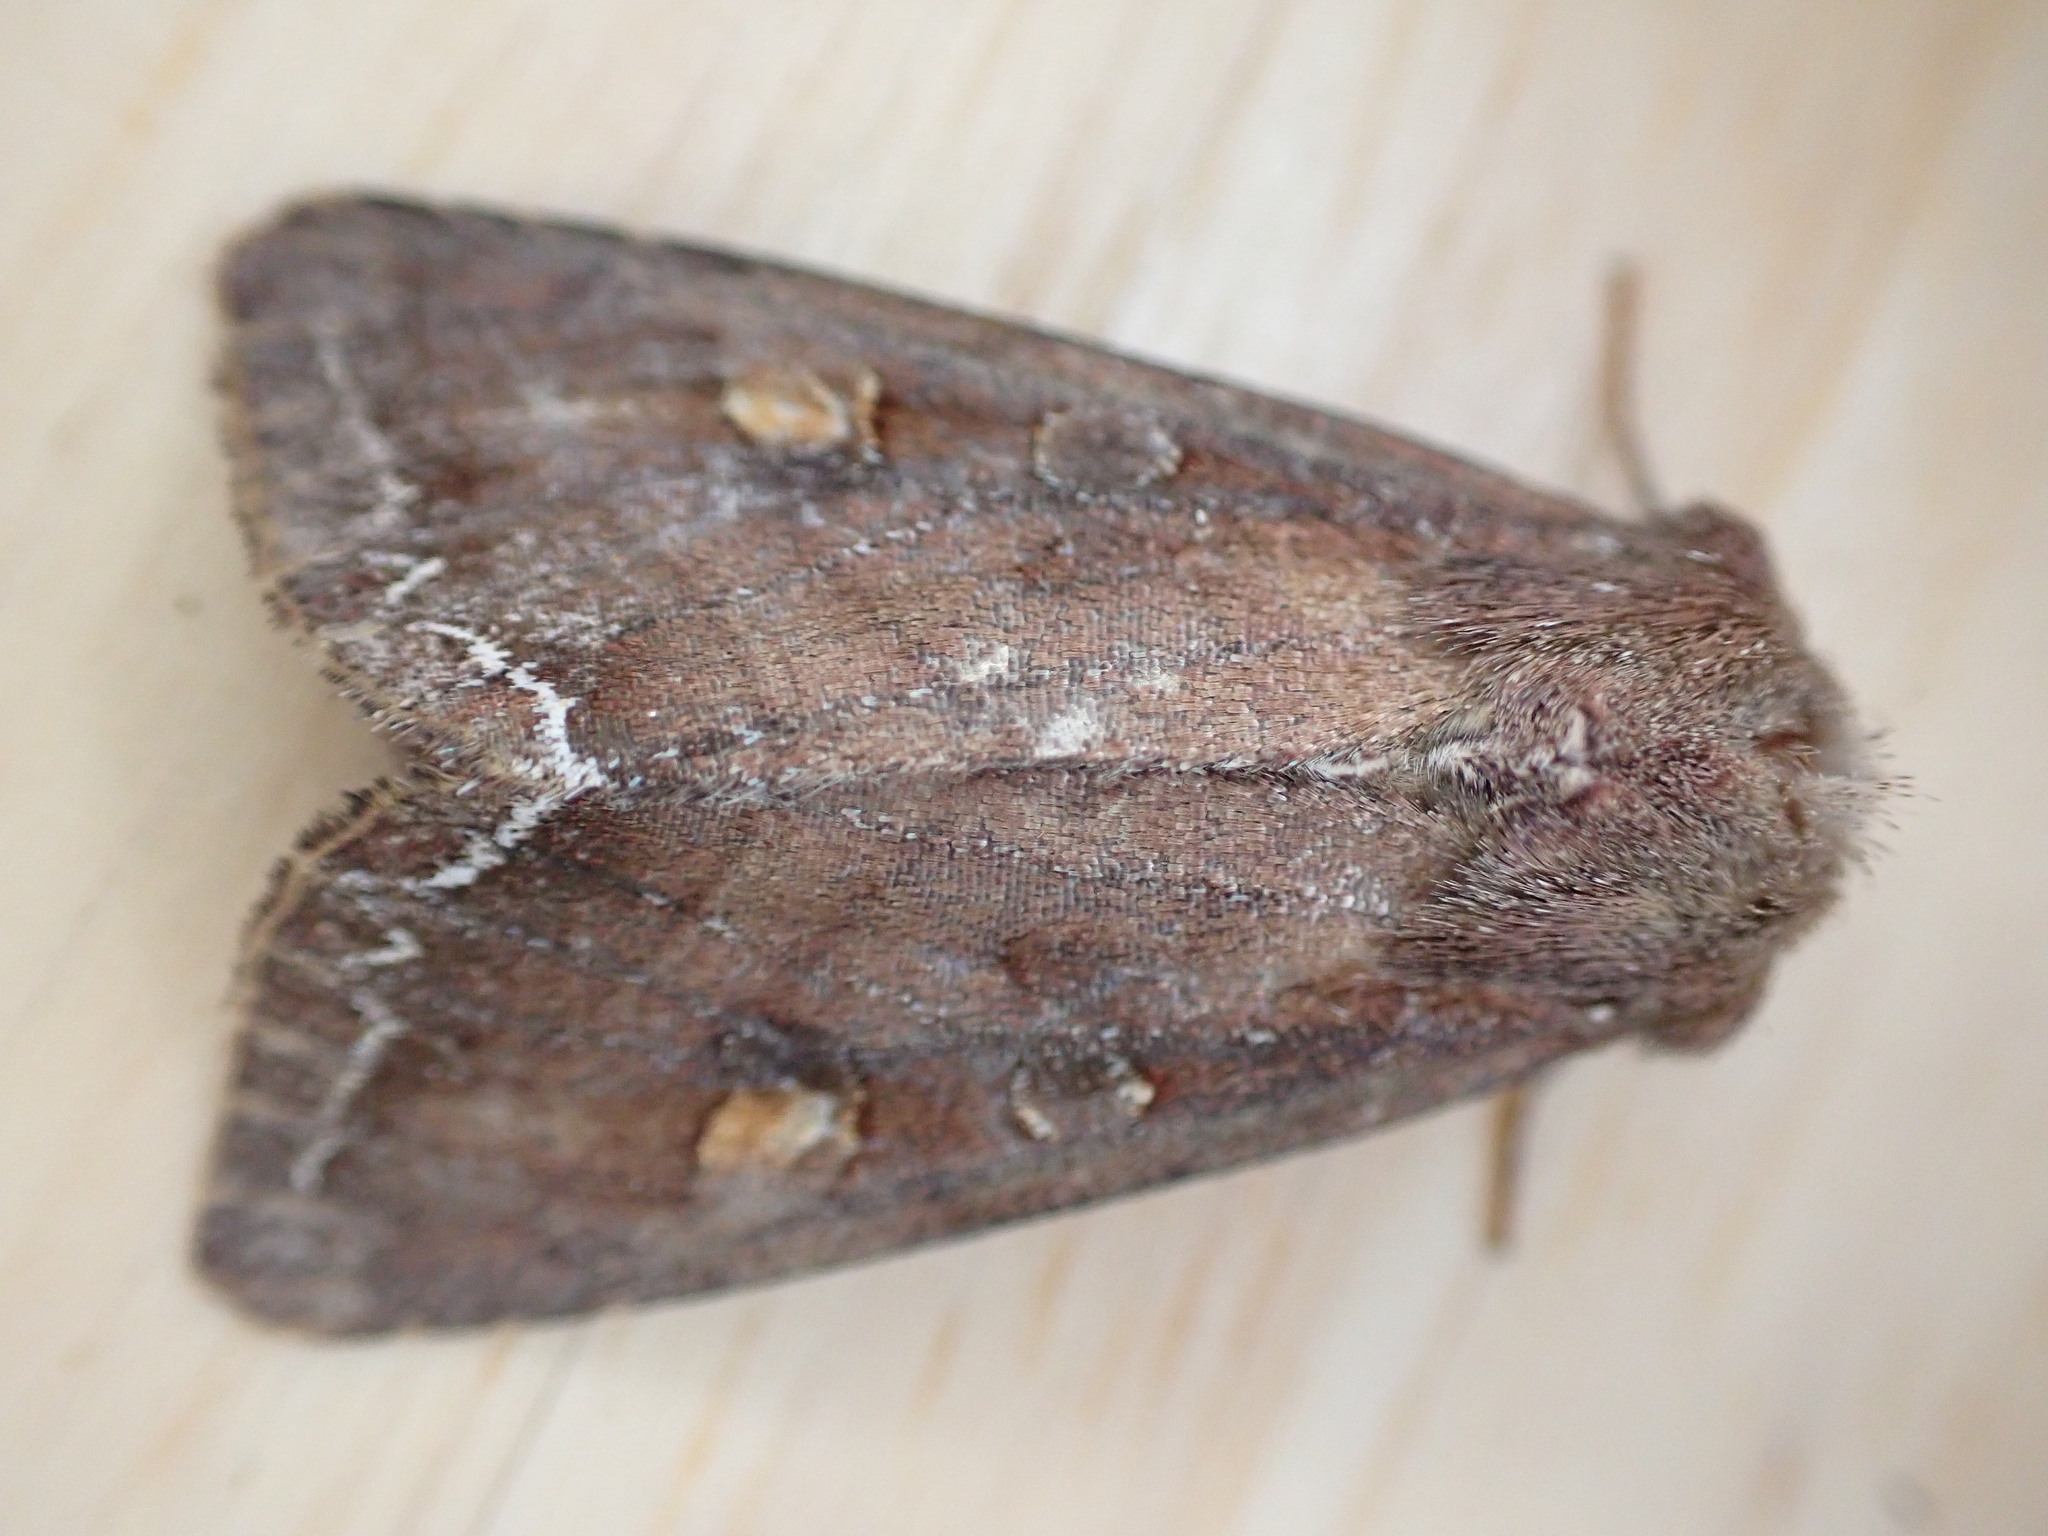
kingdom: Animalia
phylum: Arthropoda
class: Insecta
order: Lepidoptera
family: Noctuidae
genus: Lacanobia
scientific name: Lacanobia oleracea
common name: Bright-line brown-eye
